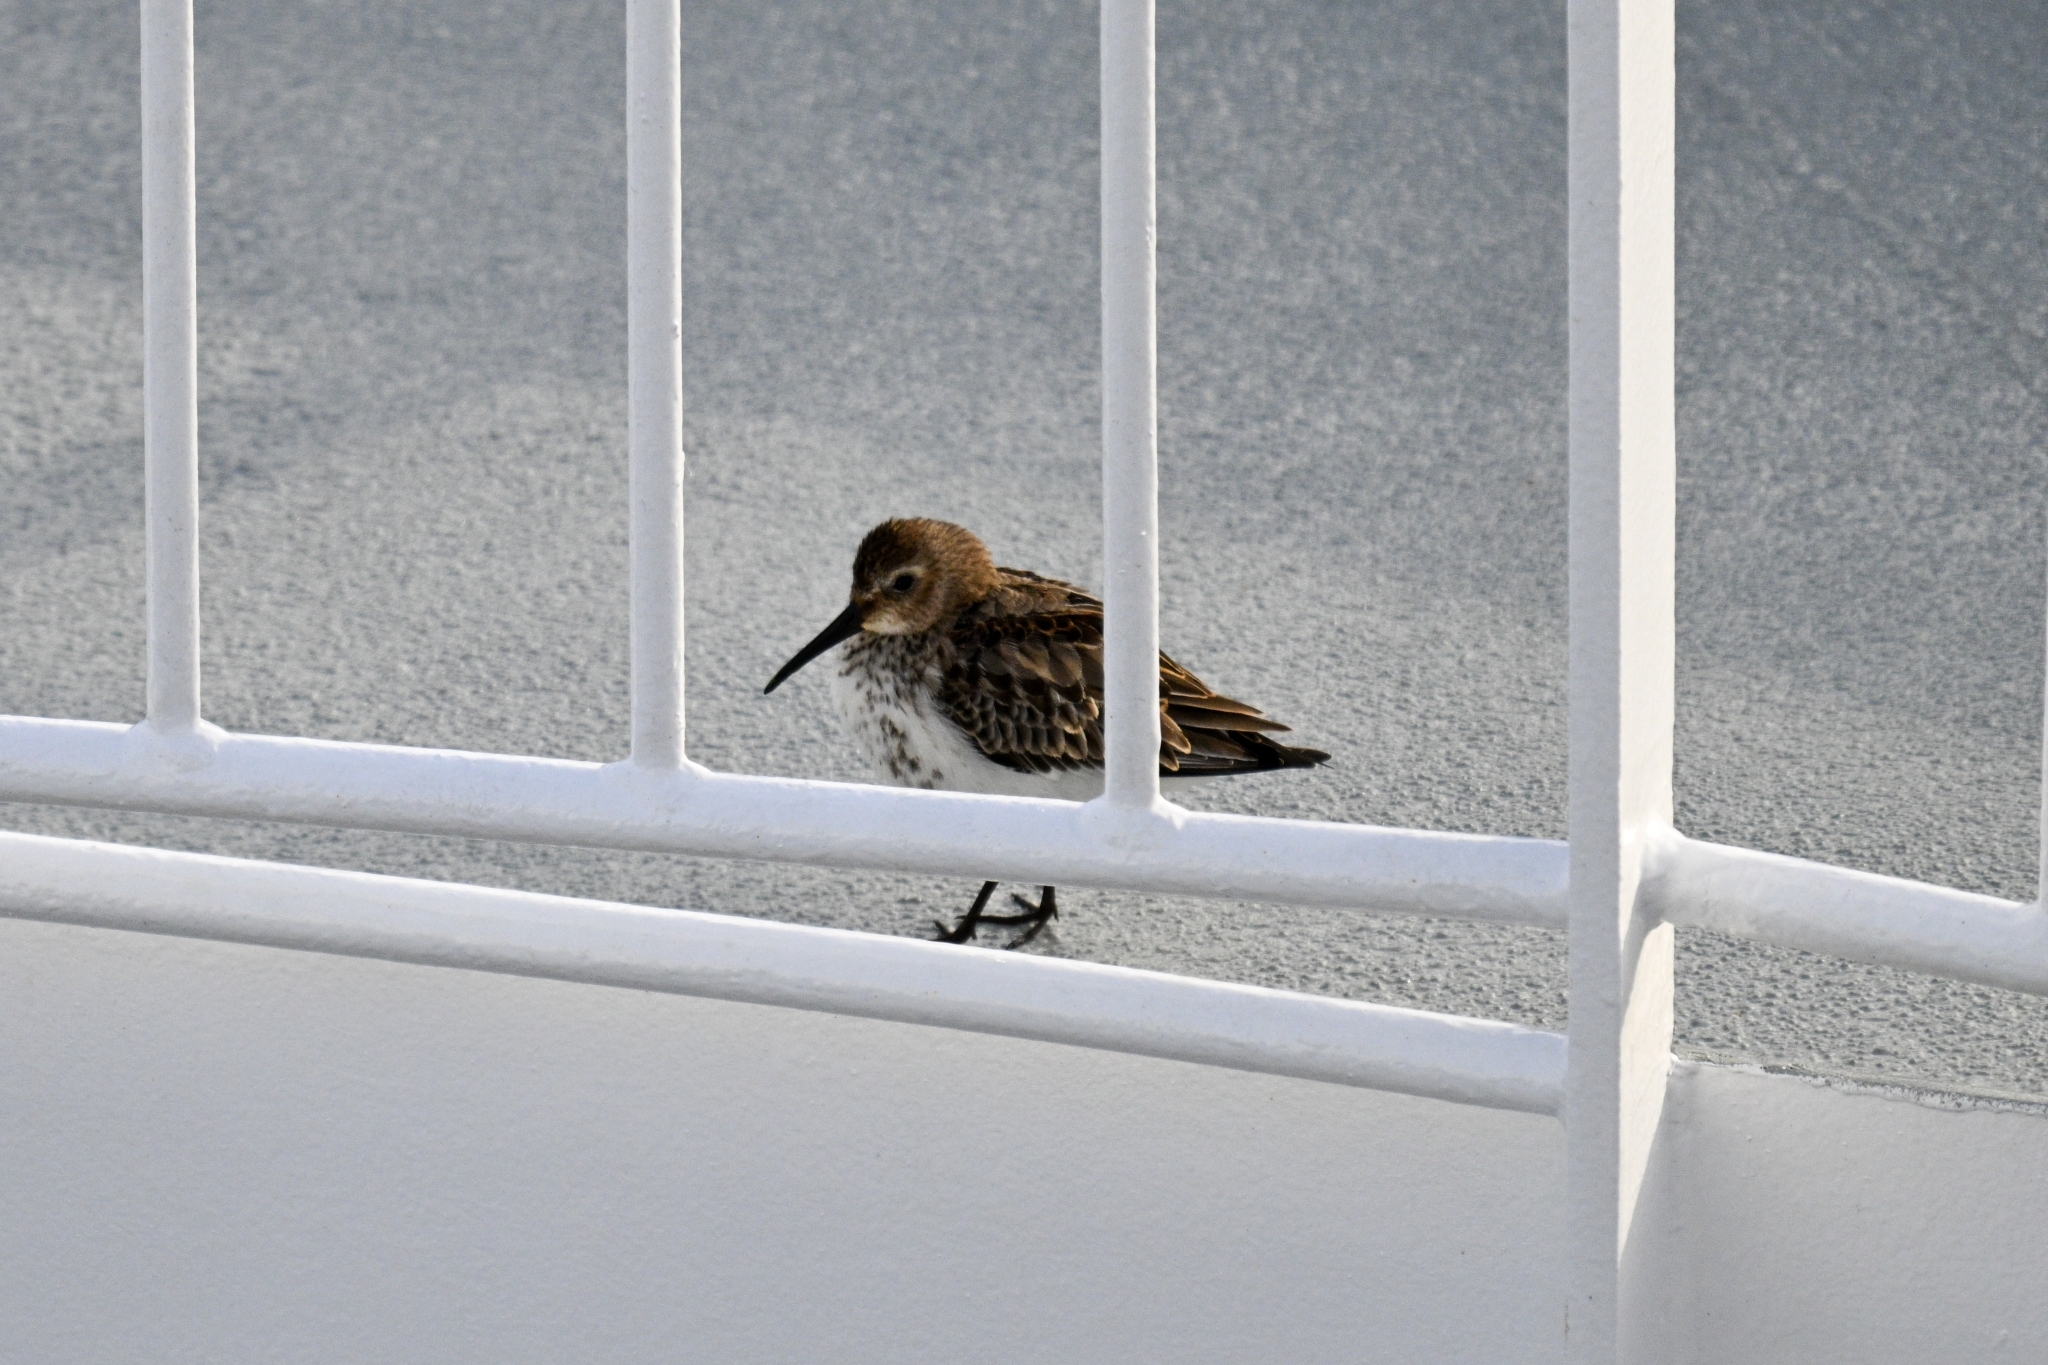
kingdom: Animalia
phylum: Chordata
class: Aves
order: Charadriiformes
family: Scolopacidae
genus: Calidris
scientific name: Calidris alpina
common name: Dunlin
